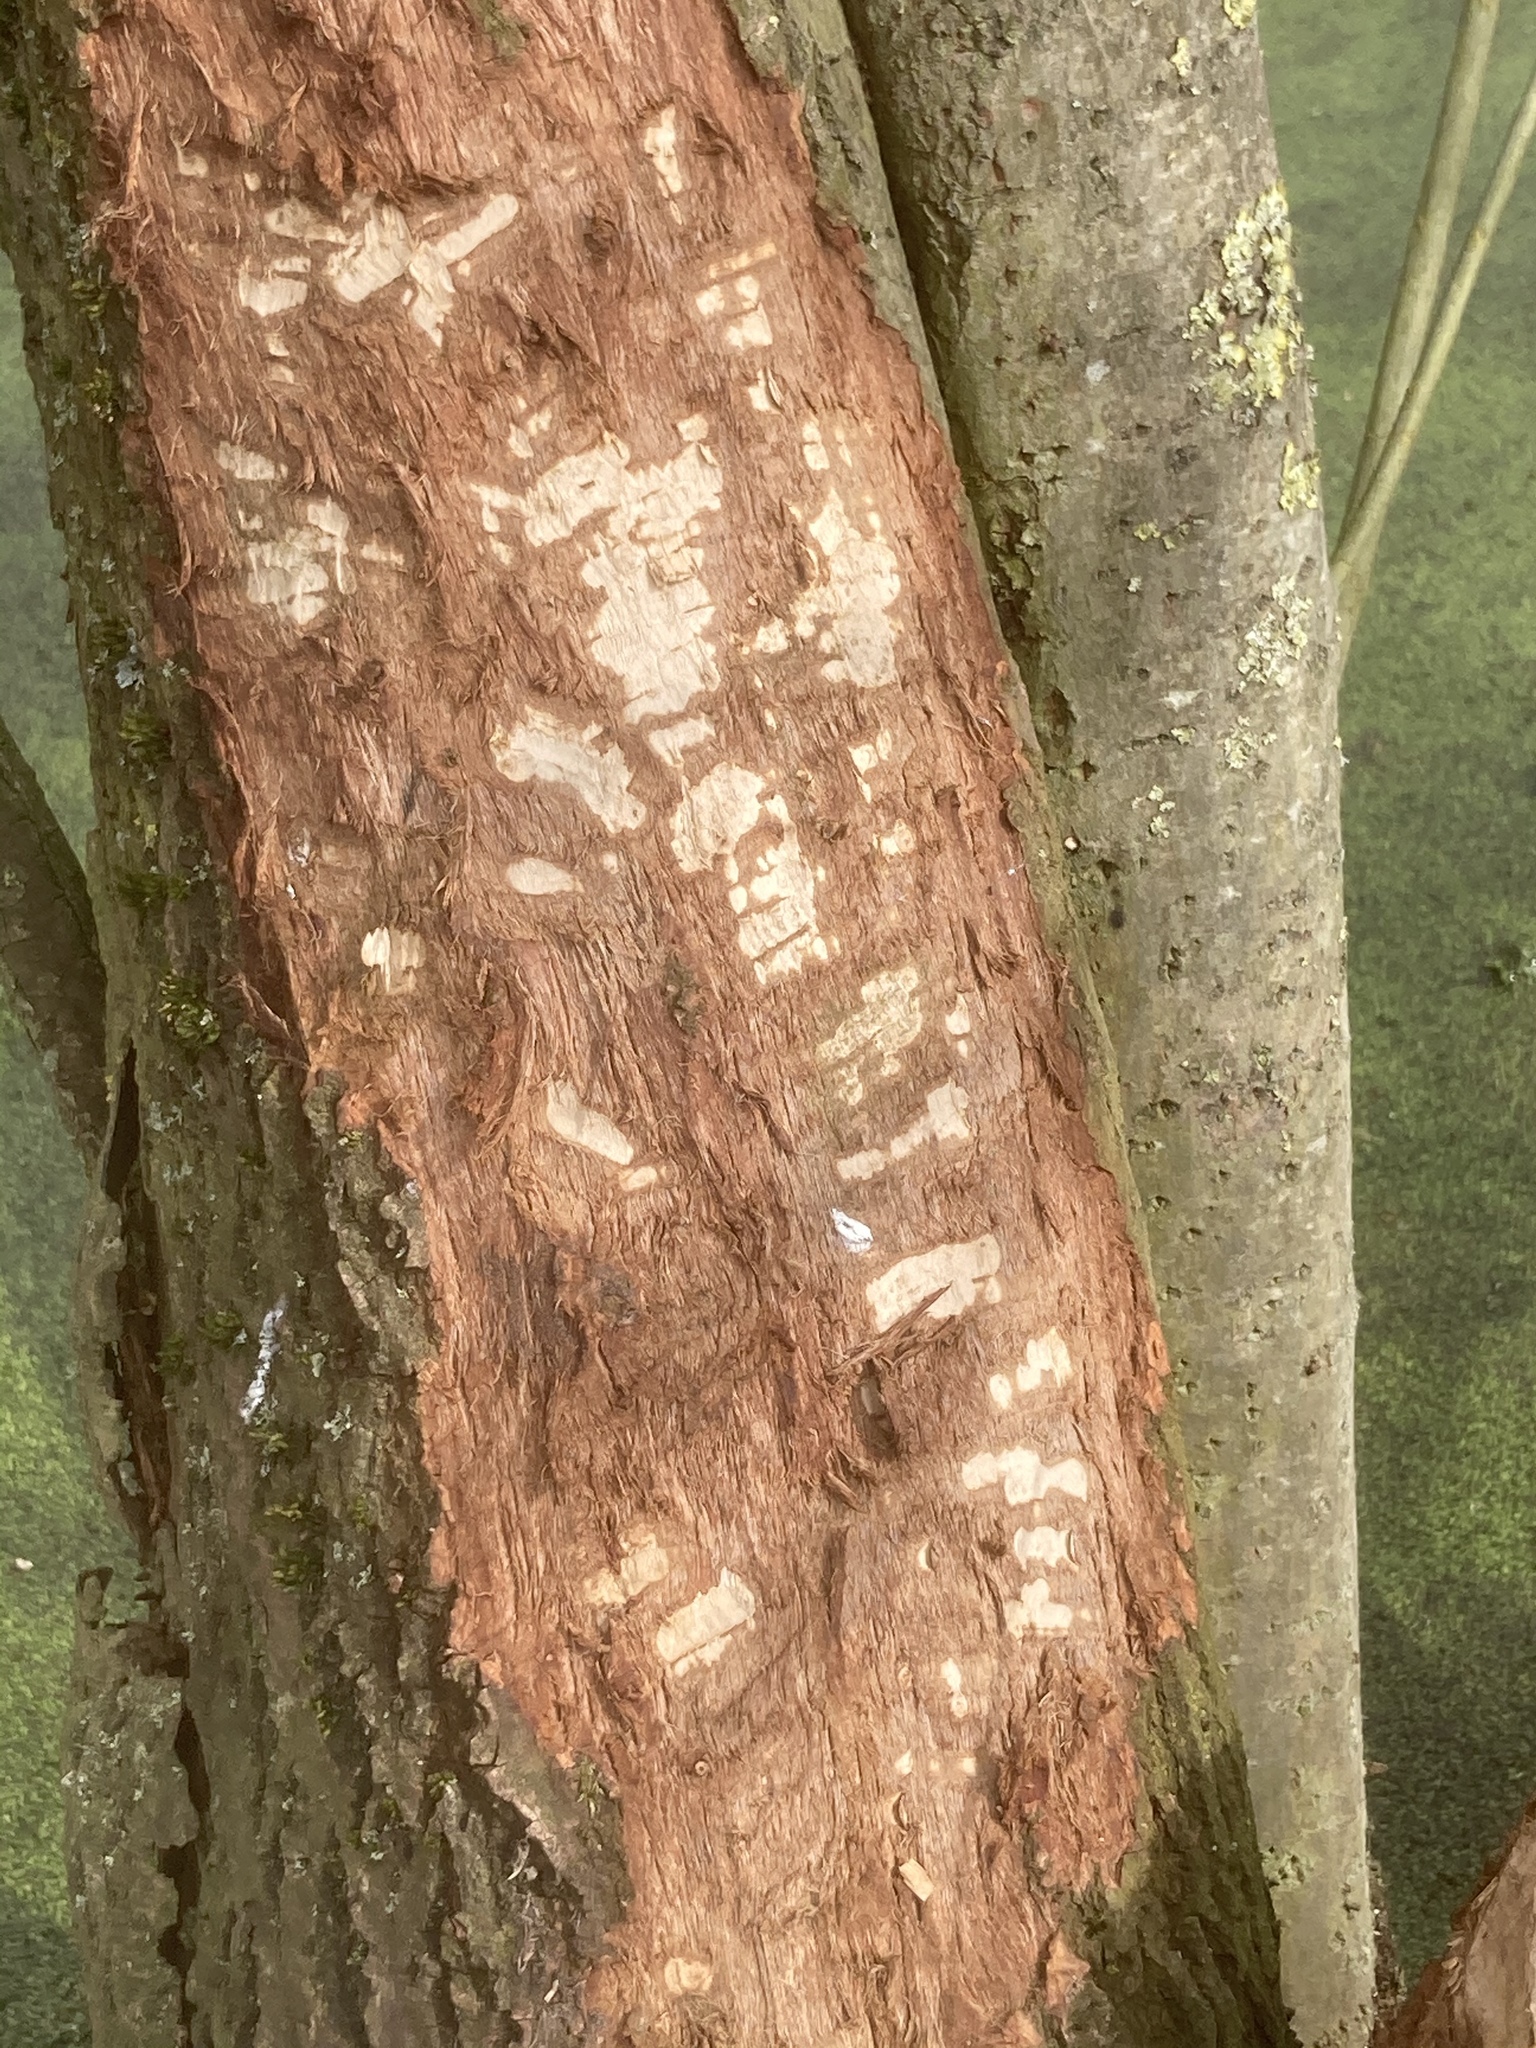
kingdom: Animalia
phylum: Chordata
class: Mammalia
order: Rodentia
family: Castoridae
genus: Castor
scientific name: Castor fiber
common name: Eurasian beaver
